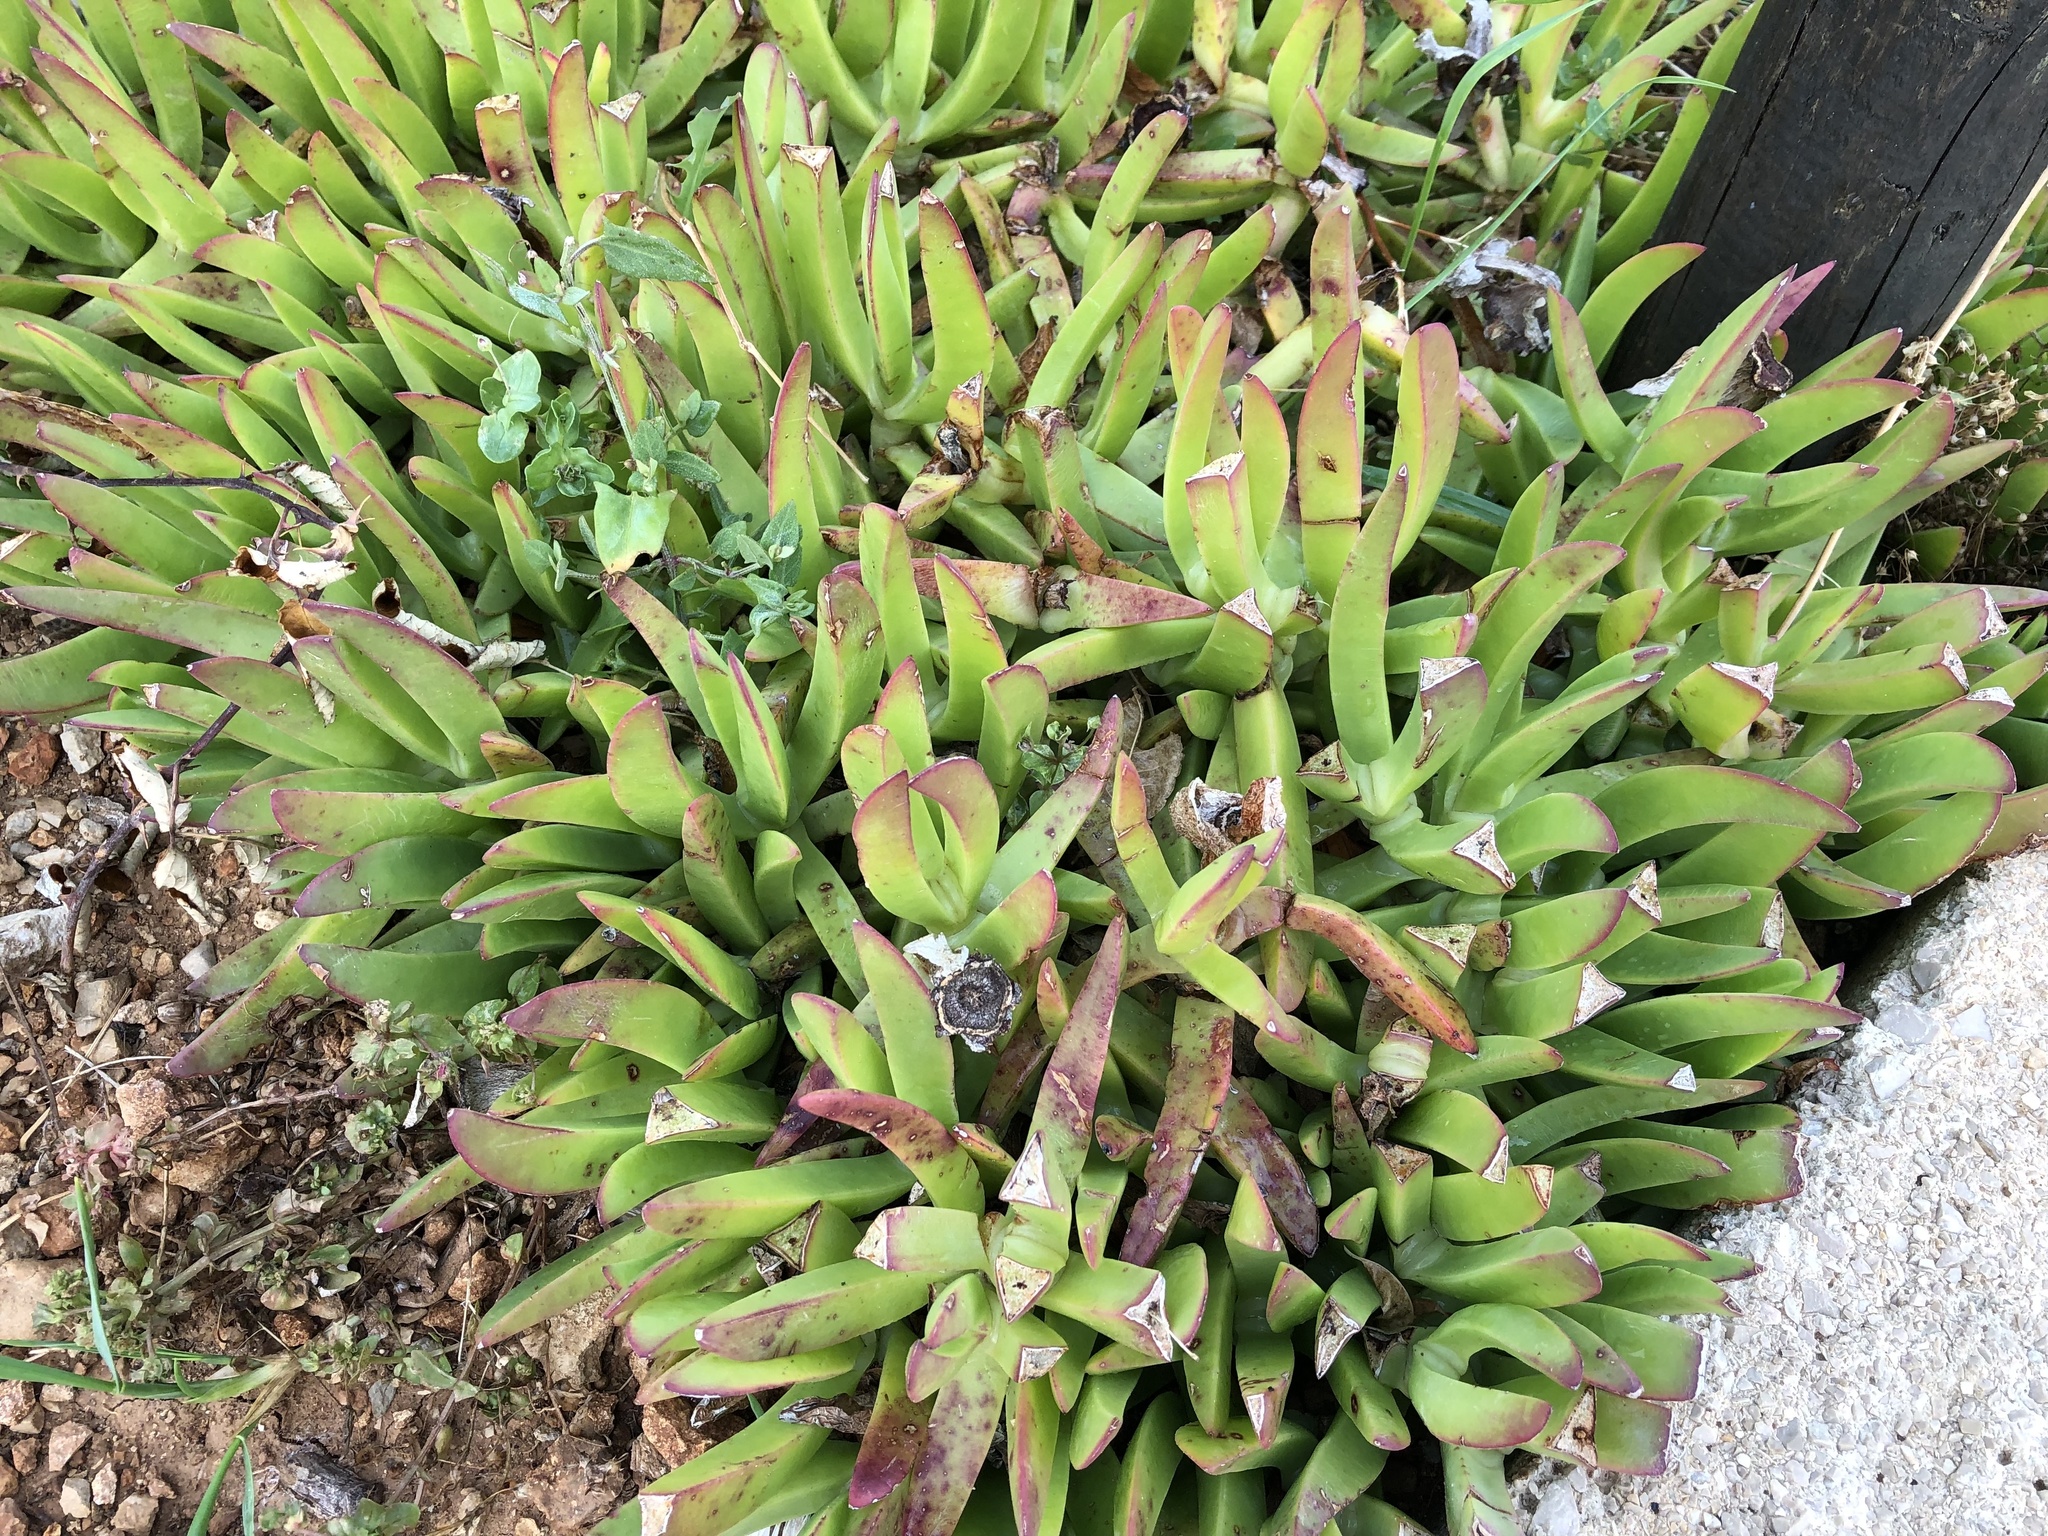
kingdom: Plantae
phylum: Tracheophyta
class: Magnoliopsida
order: Caryophyllales
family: Aizoaceae
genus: Carpobrotus
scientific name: Carpobrotus
